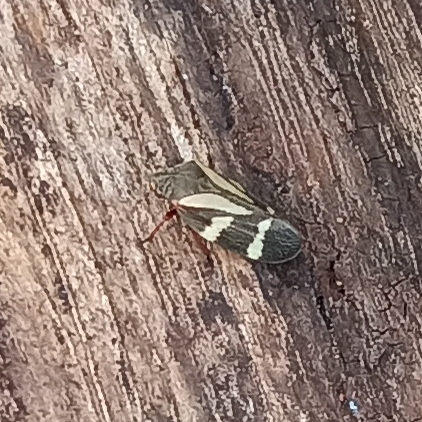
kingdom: Animalia
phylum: Arthropoda
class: Insecta
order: Hemiptera
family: Cercopidae
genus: Deois
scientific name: Deois flavopicta
